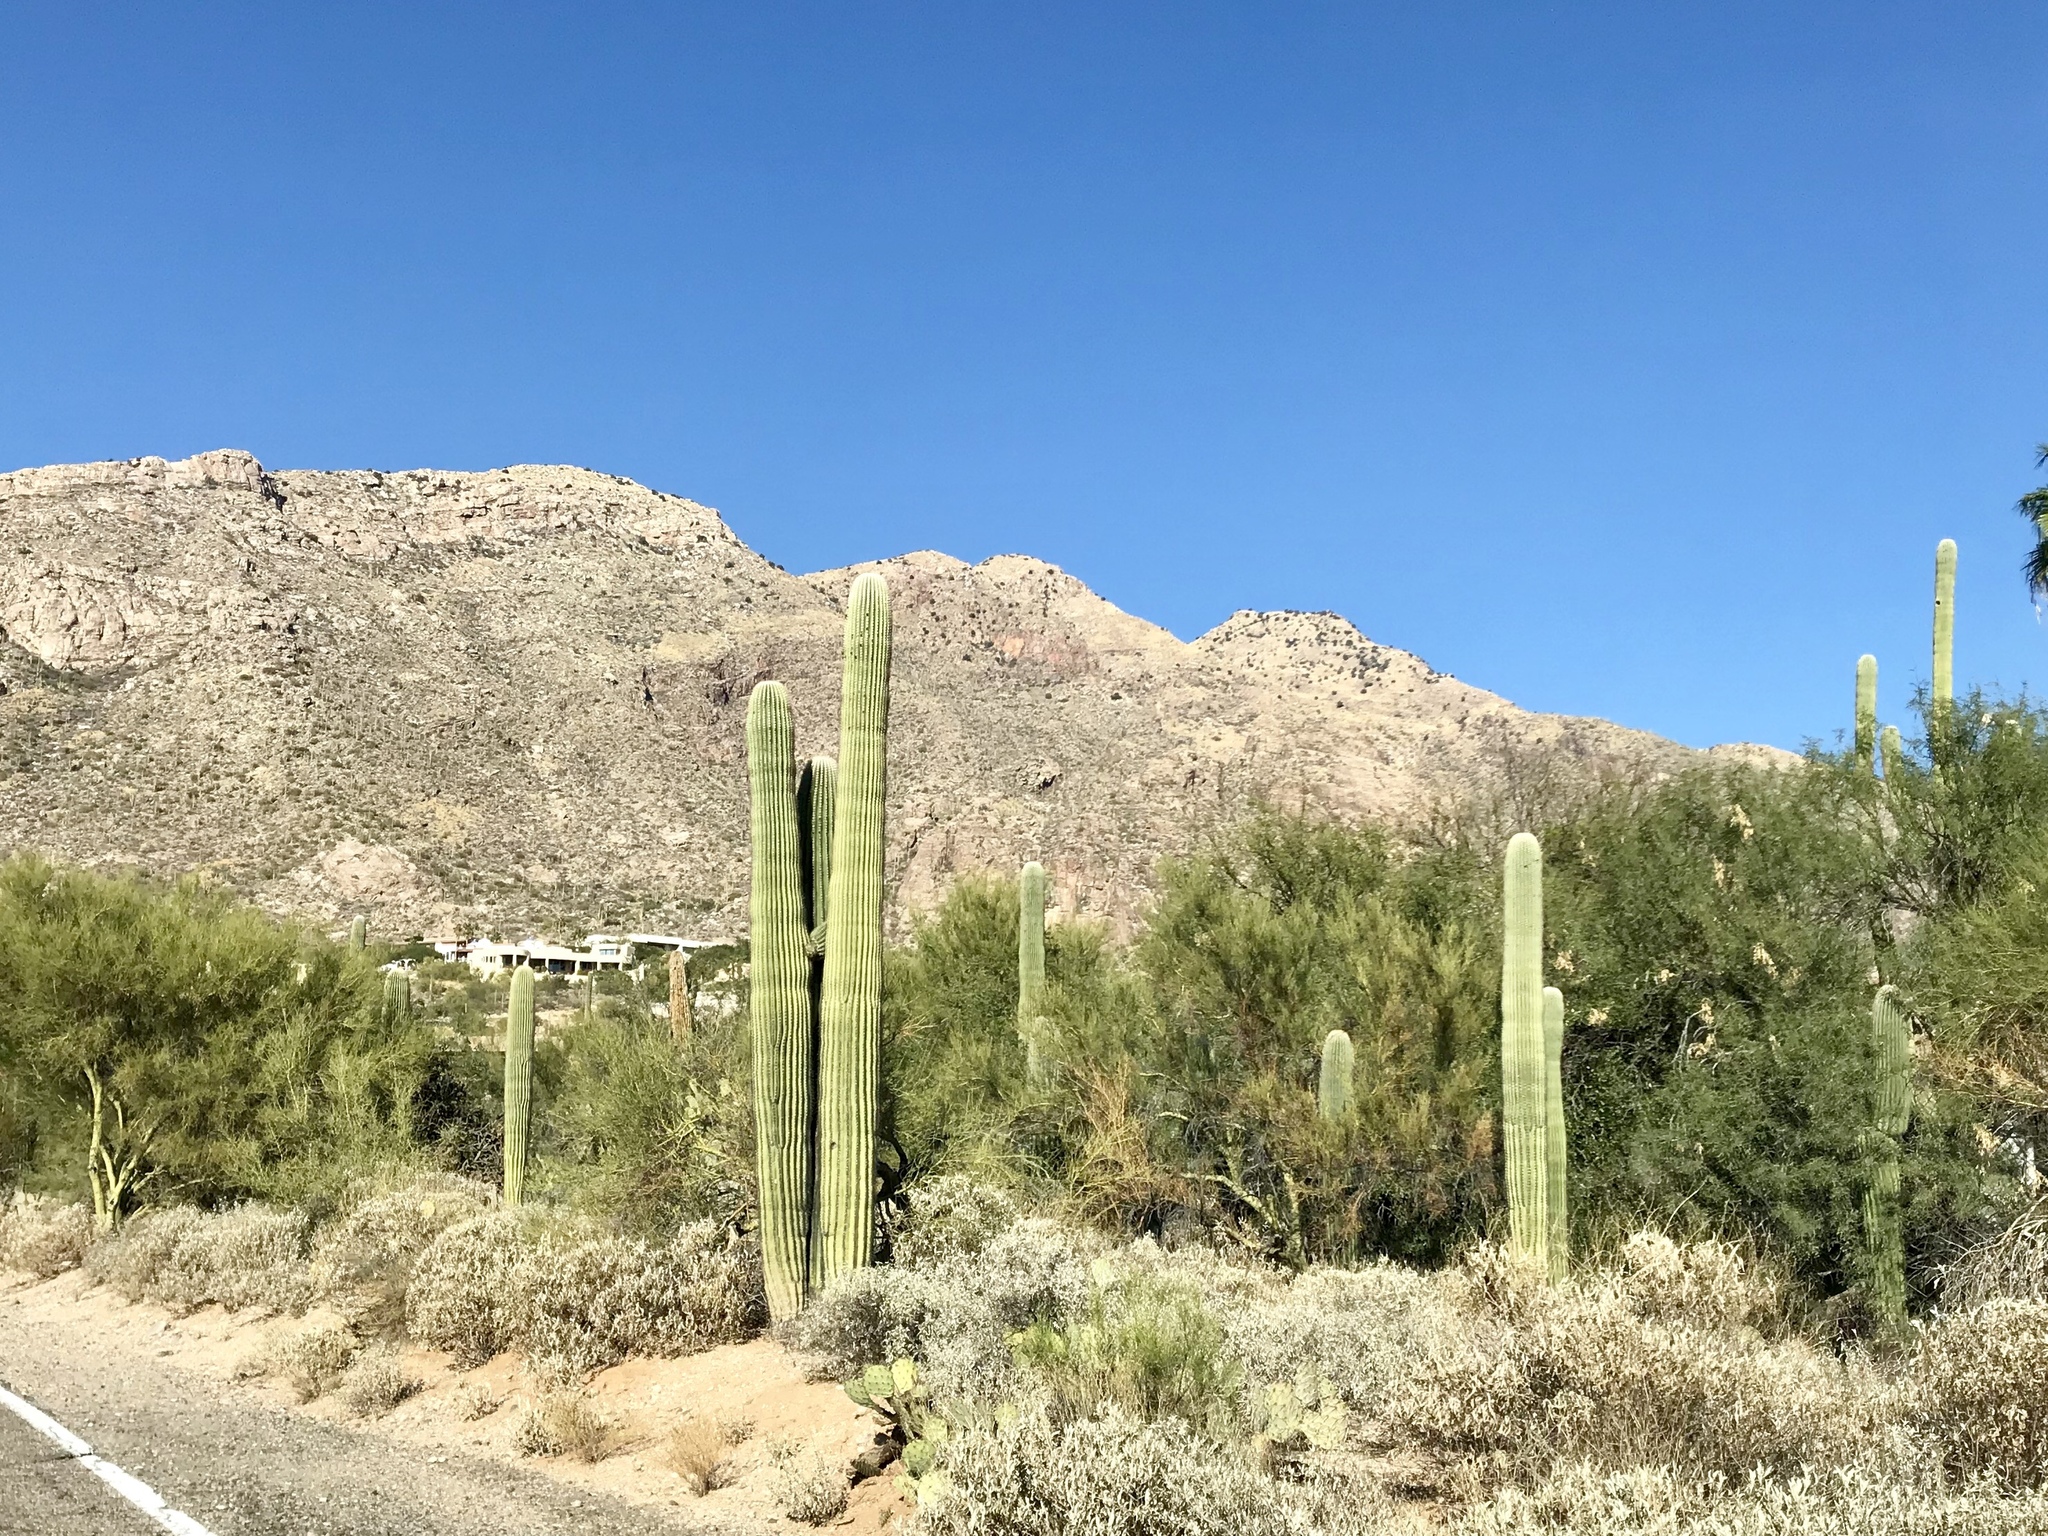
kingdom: Plantae
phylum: Tracheophyta
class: Magnoliopsida
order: Caryophyllales
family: Cactaceae
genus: Carnegiea
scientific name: Carnegiea gigantea
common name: Saguaro
